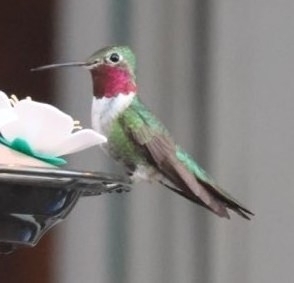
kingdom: Animalia
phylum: Chordata
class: Aves
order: Apodiformes
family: Trochilidae
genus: Selasphorus
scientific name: Selasphorus platycercus
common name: Broad-tailed hummingbird
